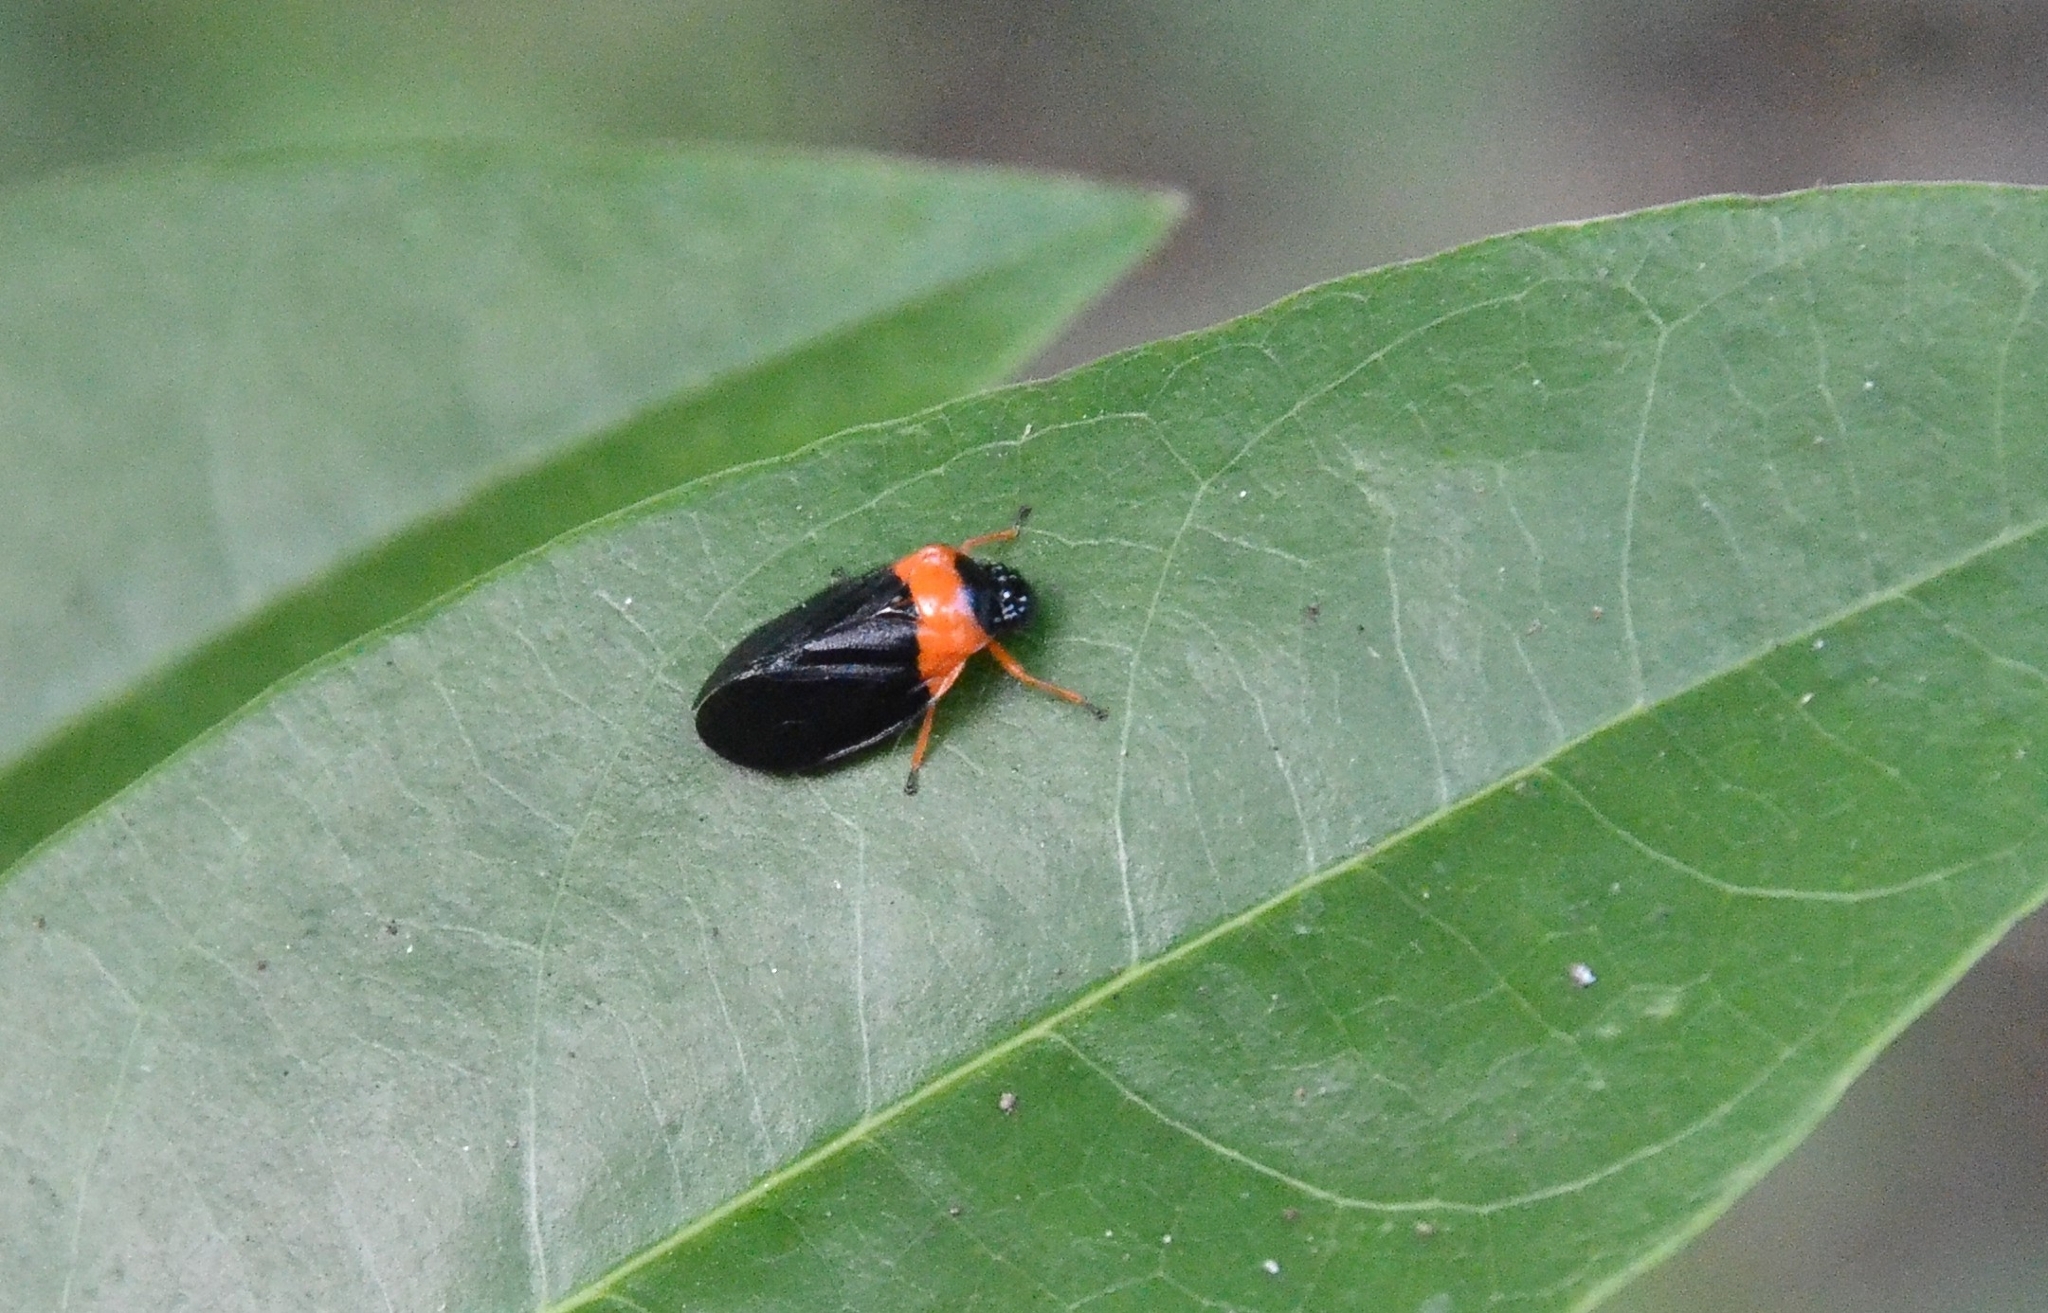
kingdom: Animalia
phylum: Arthropoda
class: Insecta
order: Hemiptera
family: Cercopidae
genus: Phymatostetha
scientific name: Phymatostetha deschampsi
